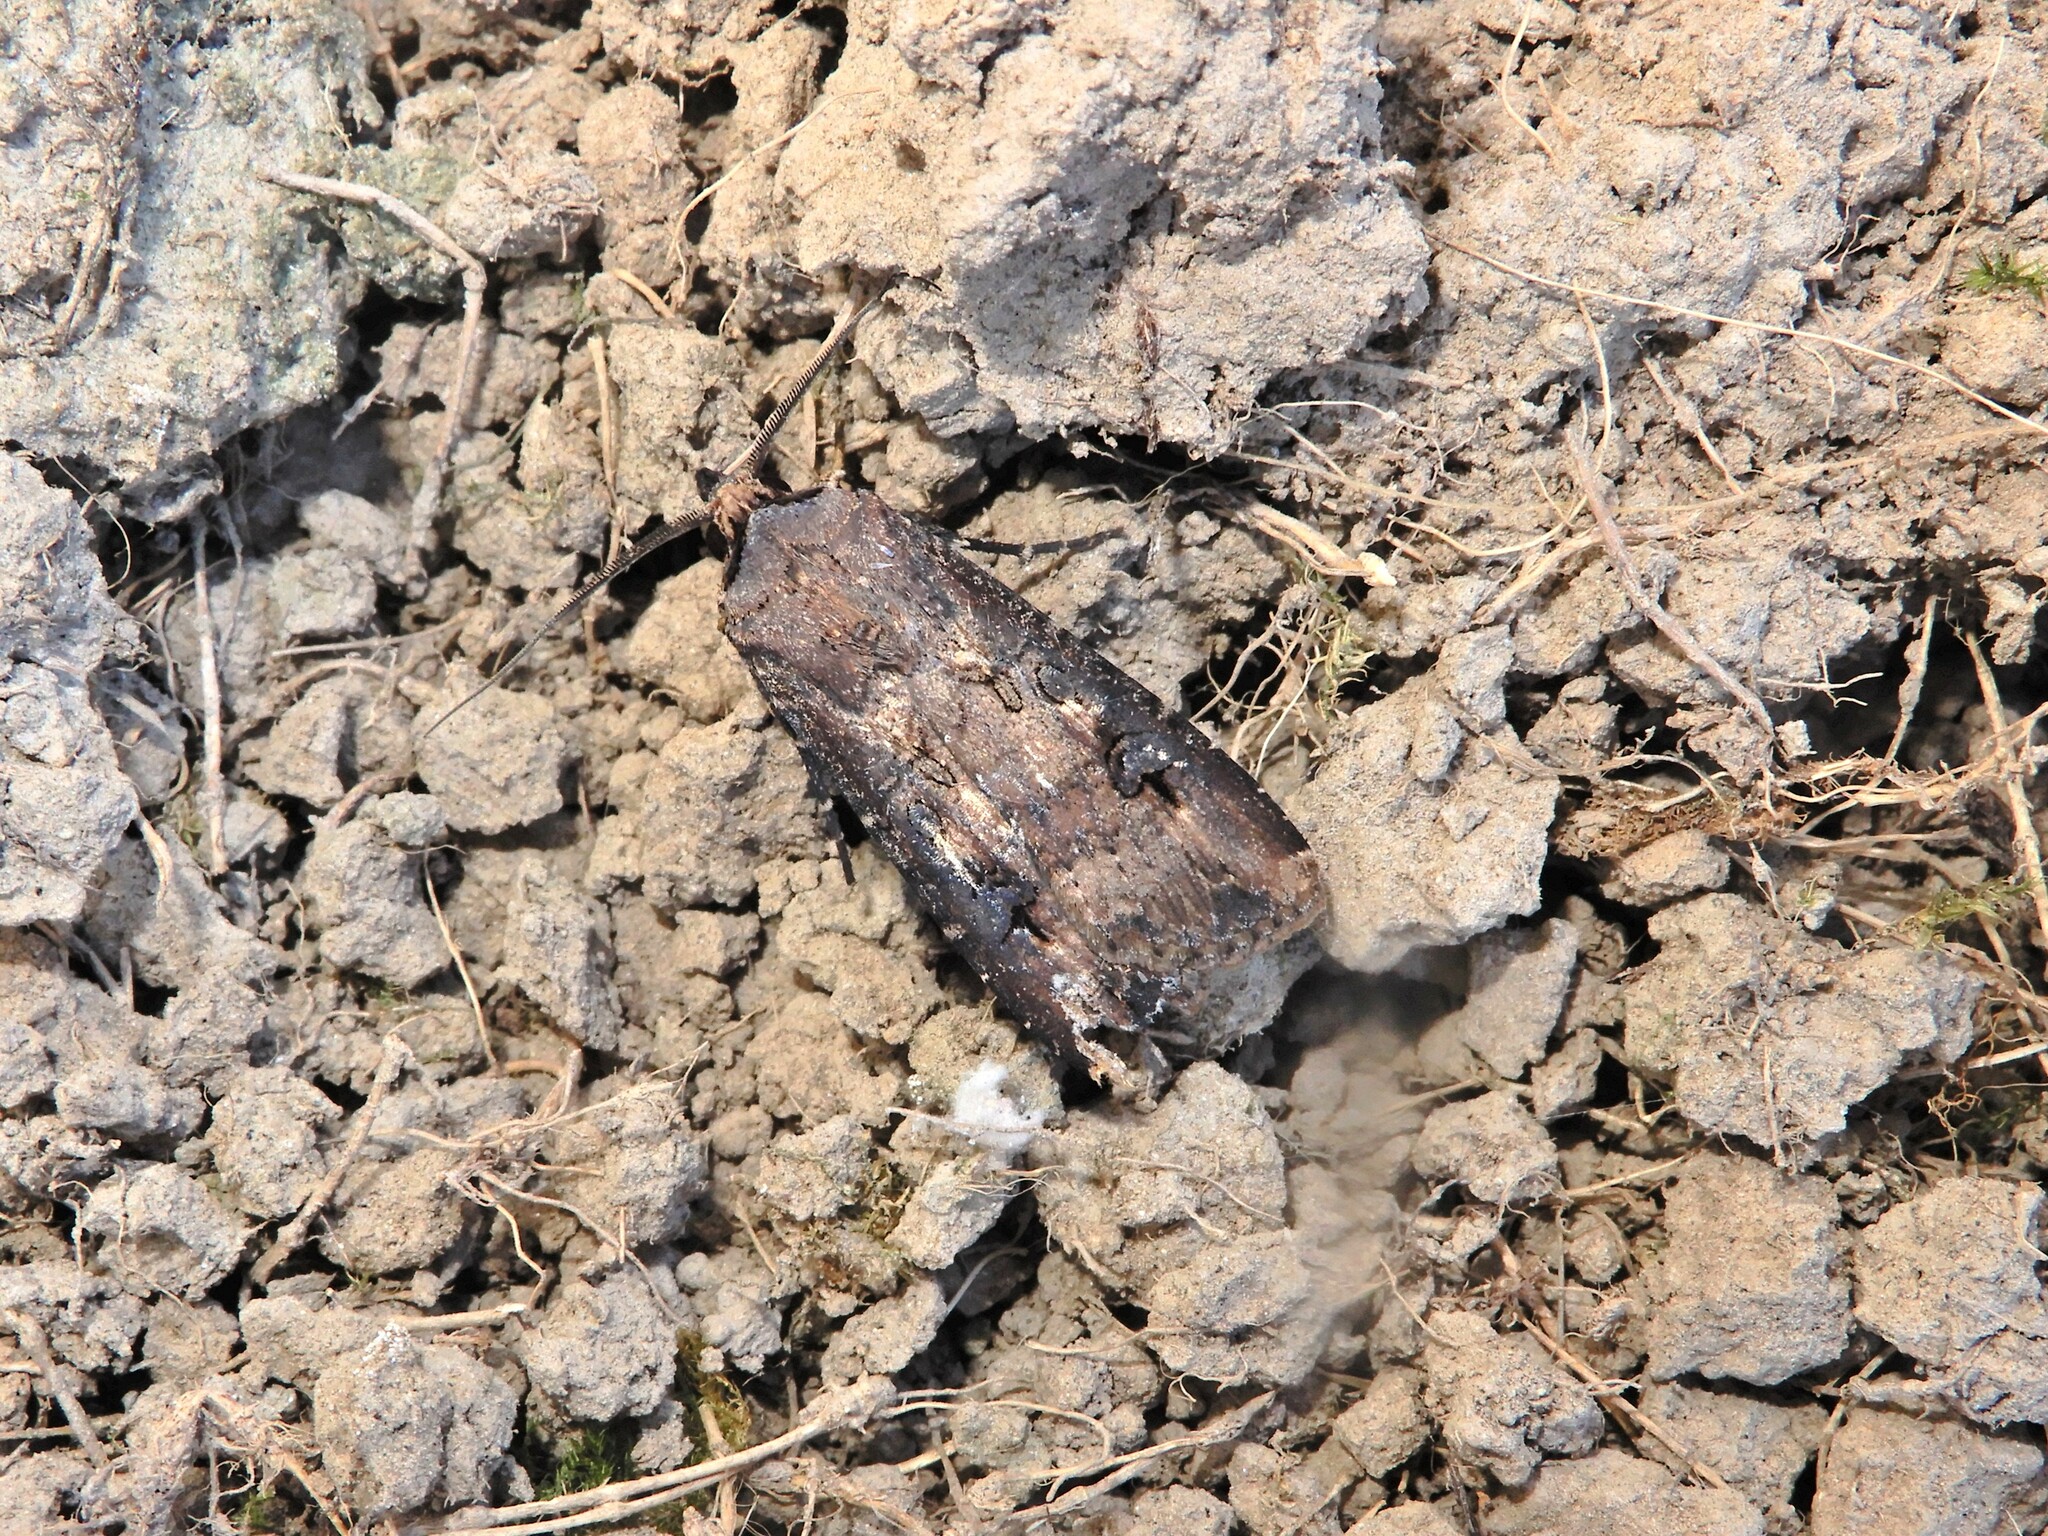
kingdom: Animalia
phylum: Arthropoda
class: Insecta
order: Lepidoptera
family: Noctuidae
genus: Agrotis
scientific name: Agrotis ipsilon
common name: Dark sword-grass
